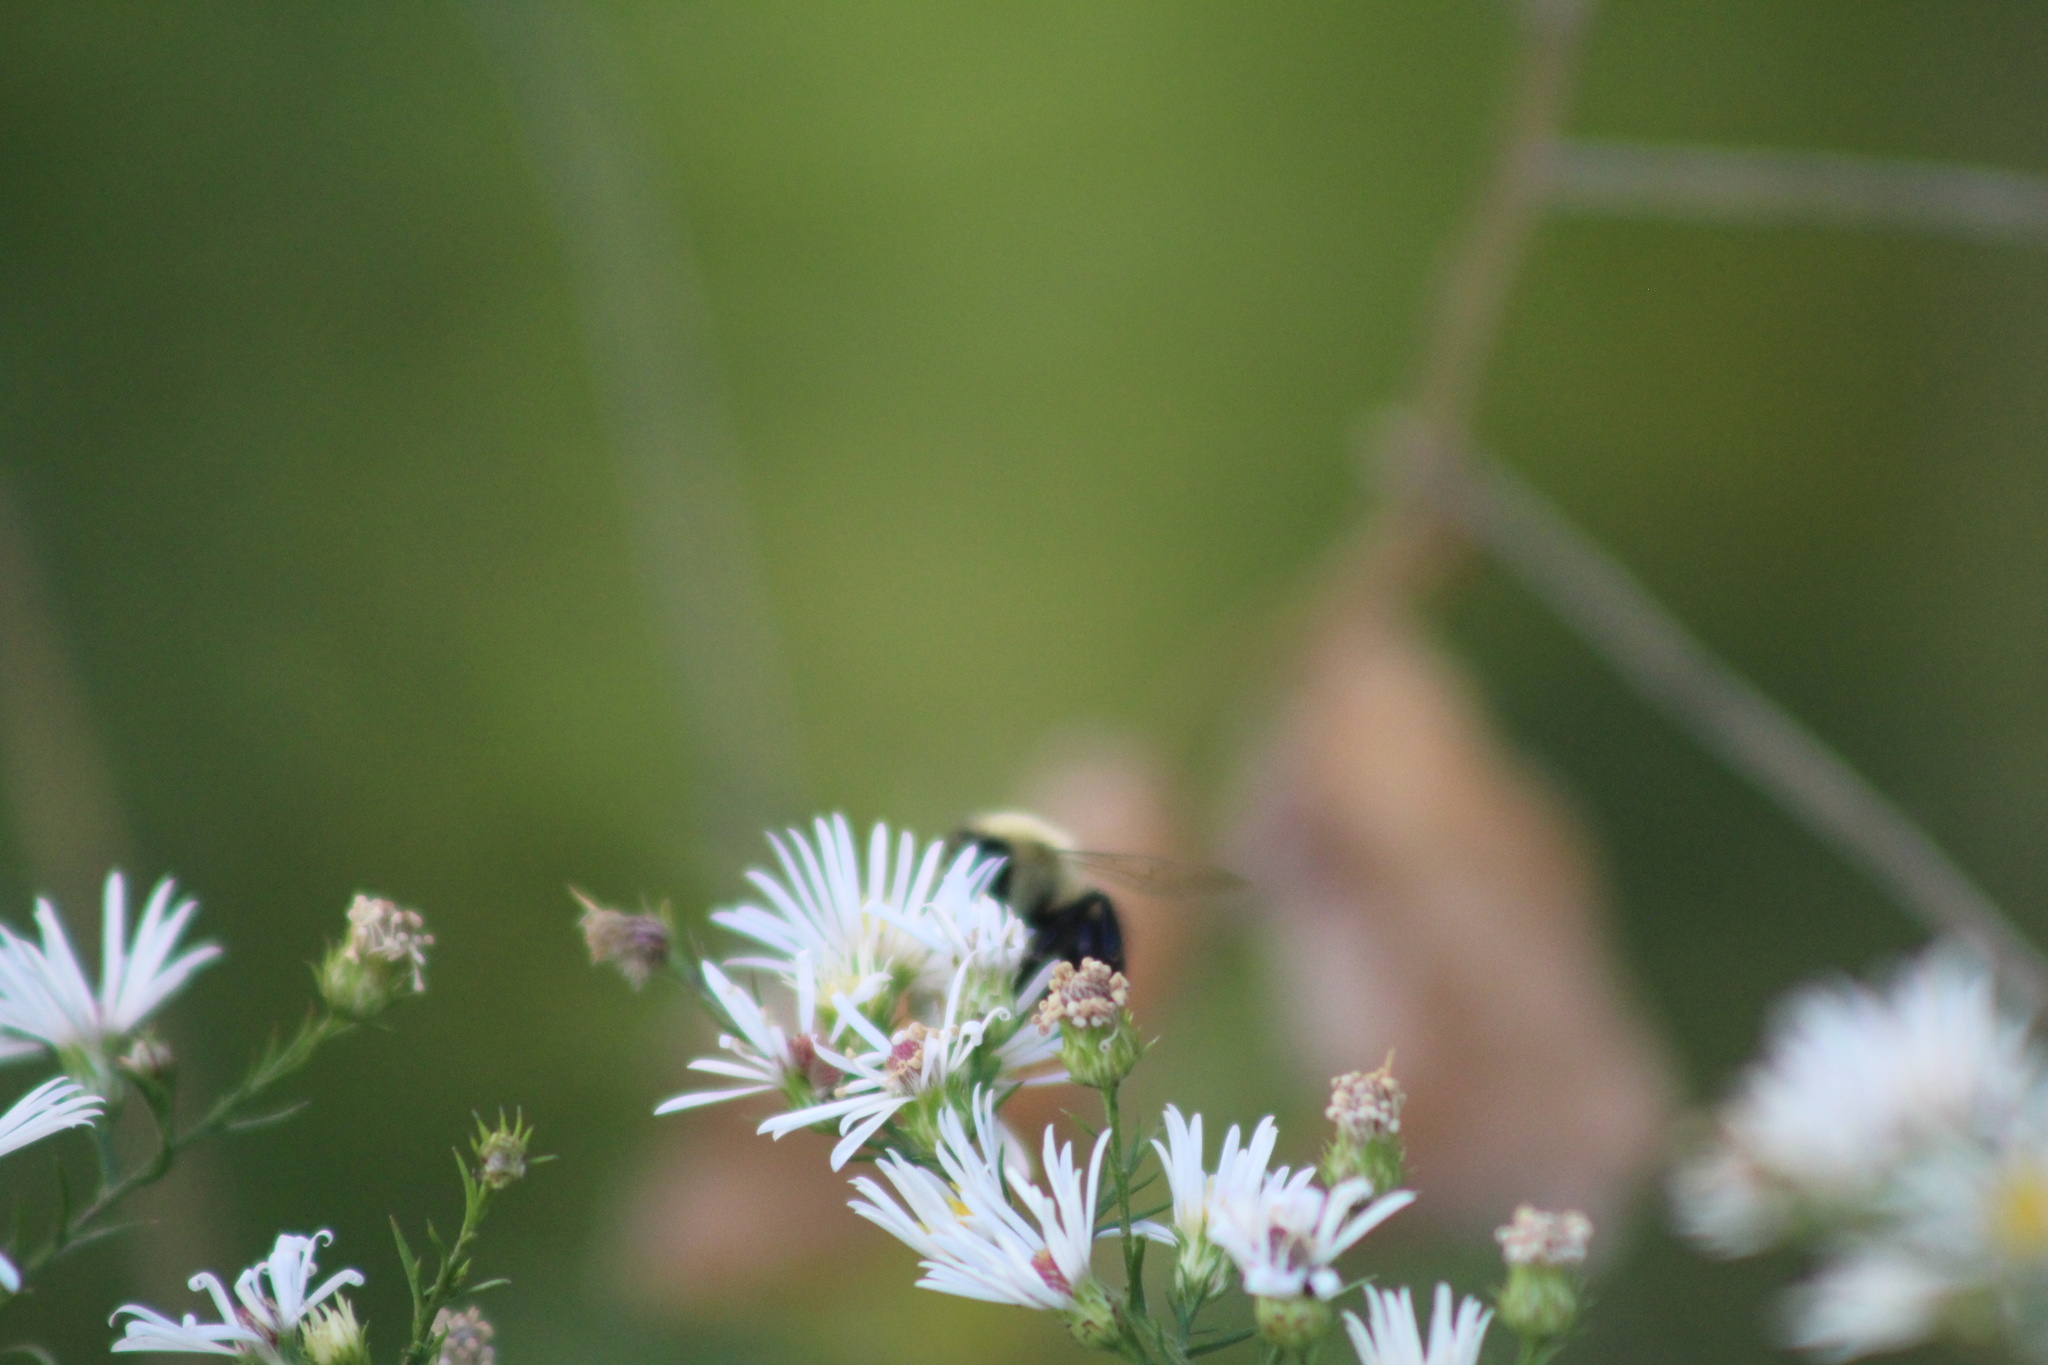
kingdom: Animalia
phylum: Arthropoda
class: Insecta
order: Hymenoptera
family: Apidae
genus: Bombus
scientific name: Bombus impatiens
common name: Common eastern bumble bee
